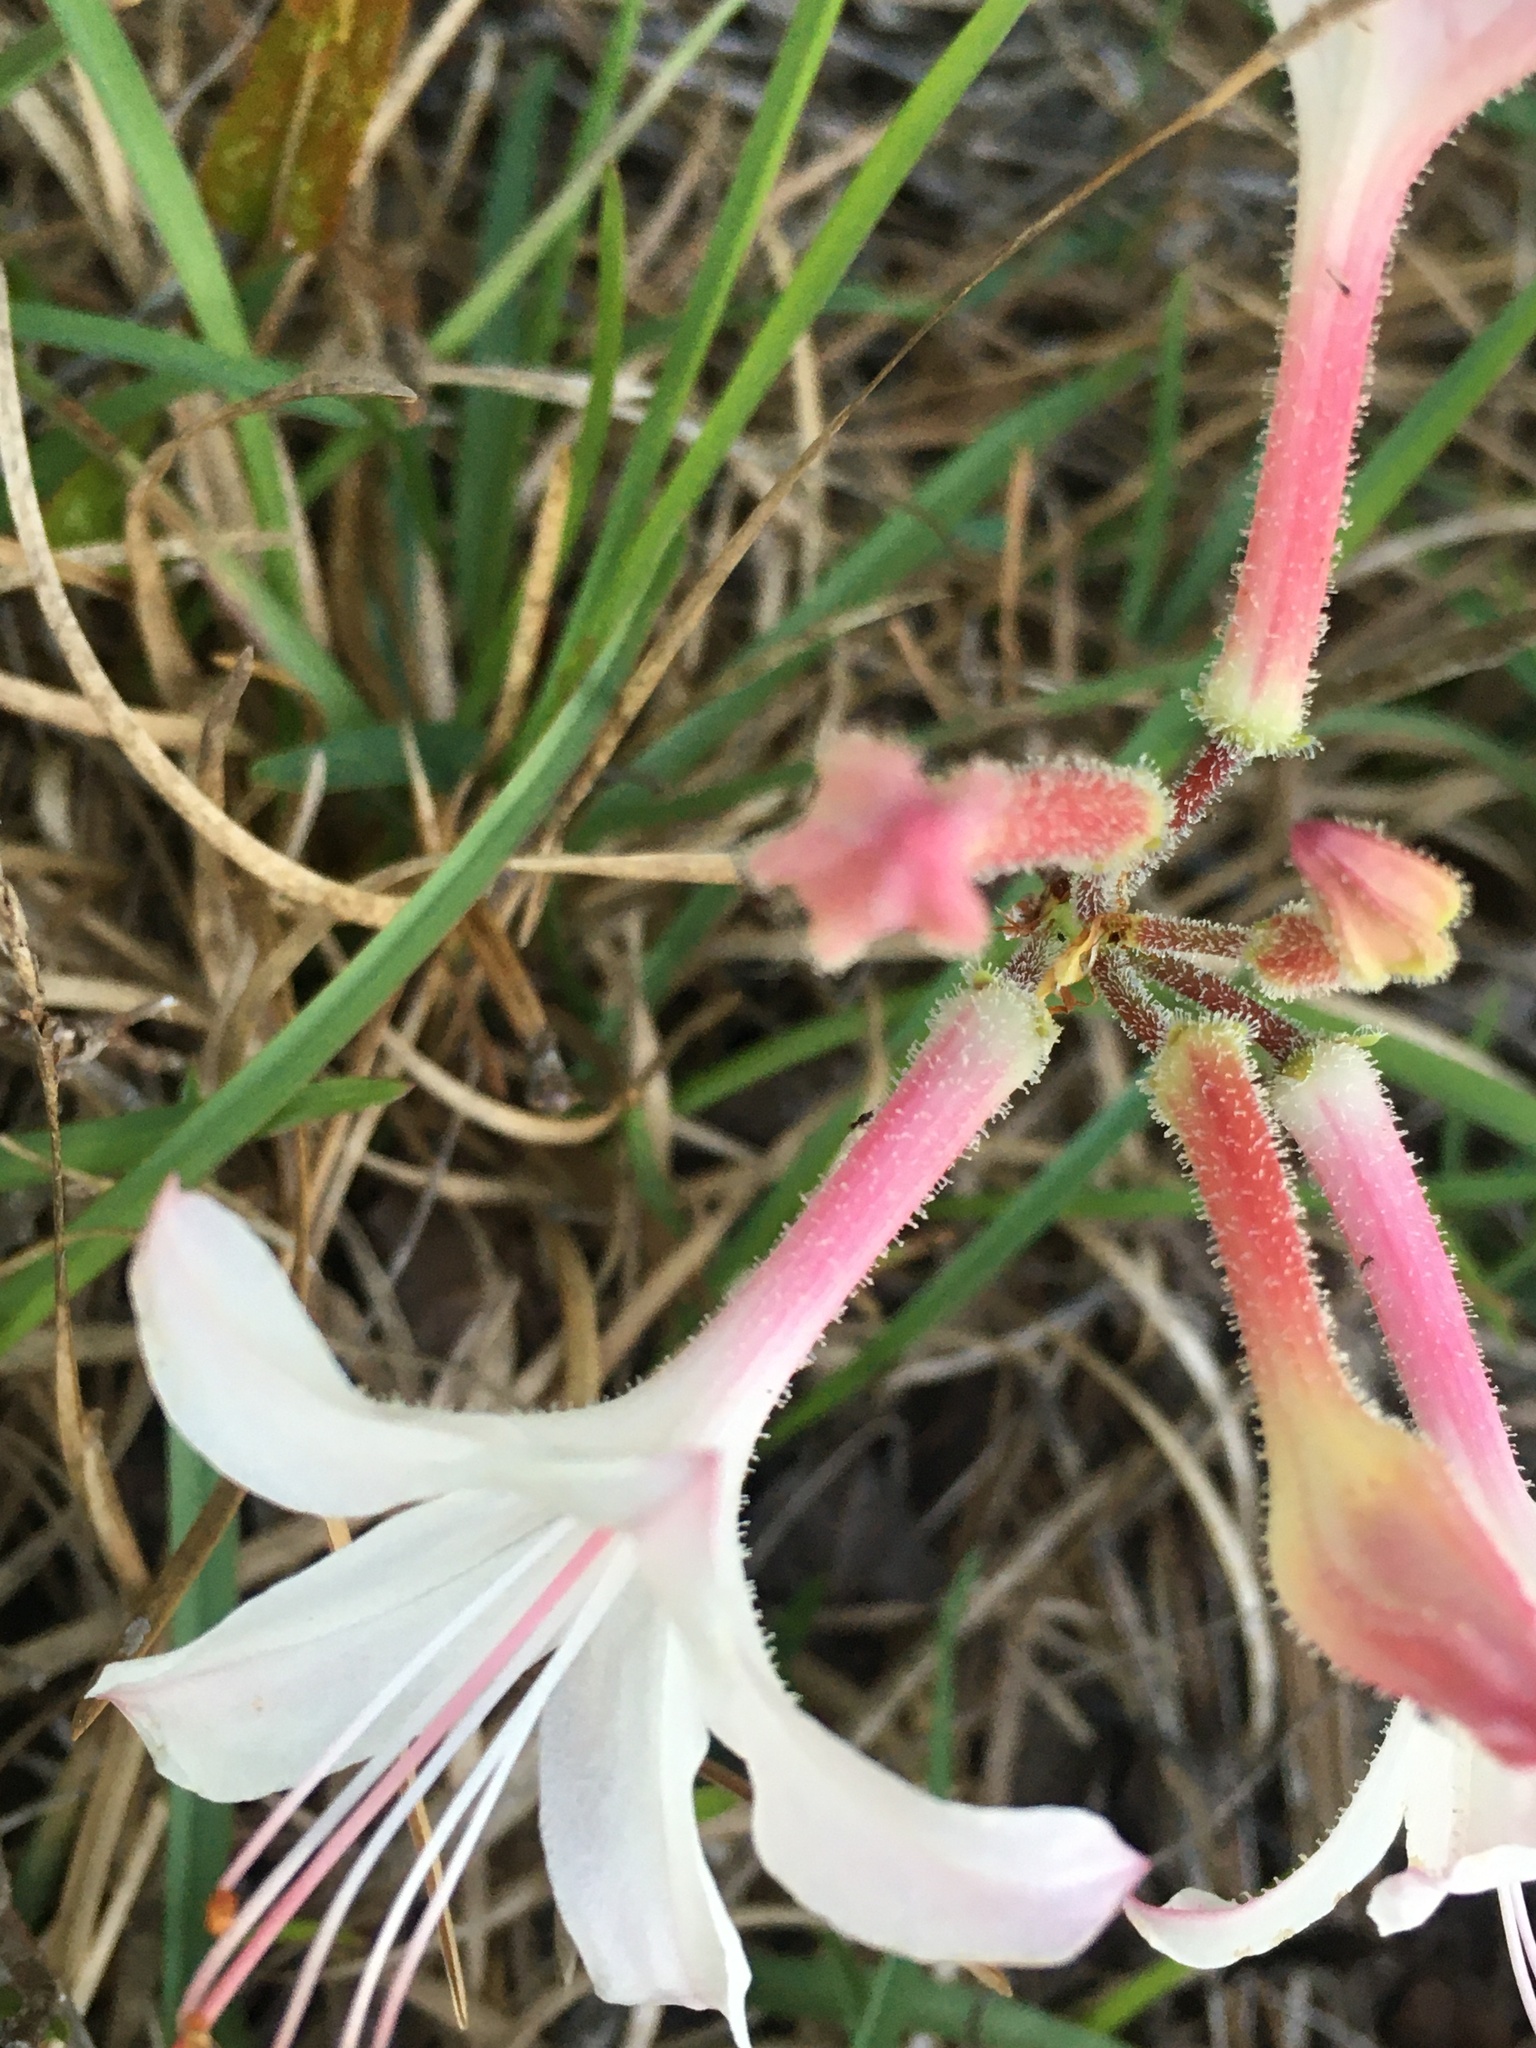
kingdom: Plantae
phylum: Tracheophyta
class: Magnoliopsida
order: Ericales
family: Ericaceae
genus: Rhododendron
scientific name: Rhododendron atlanticum
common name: Dwarf azalea
